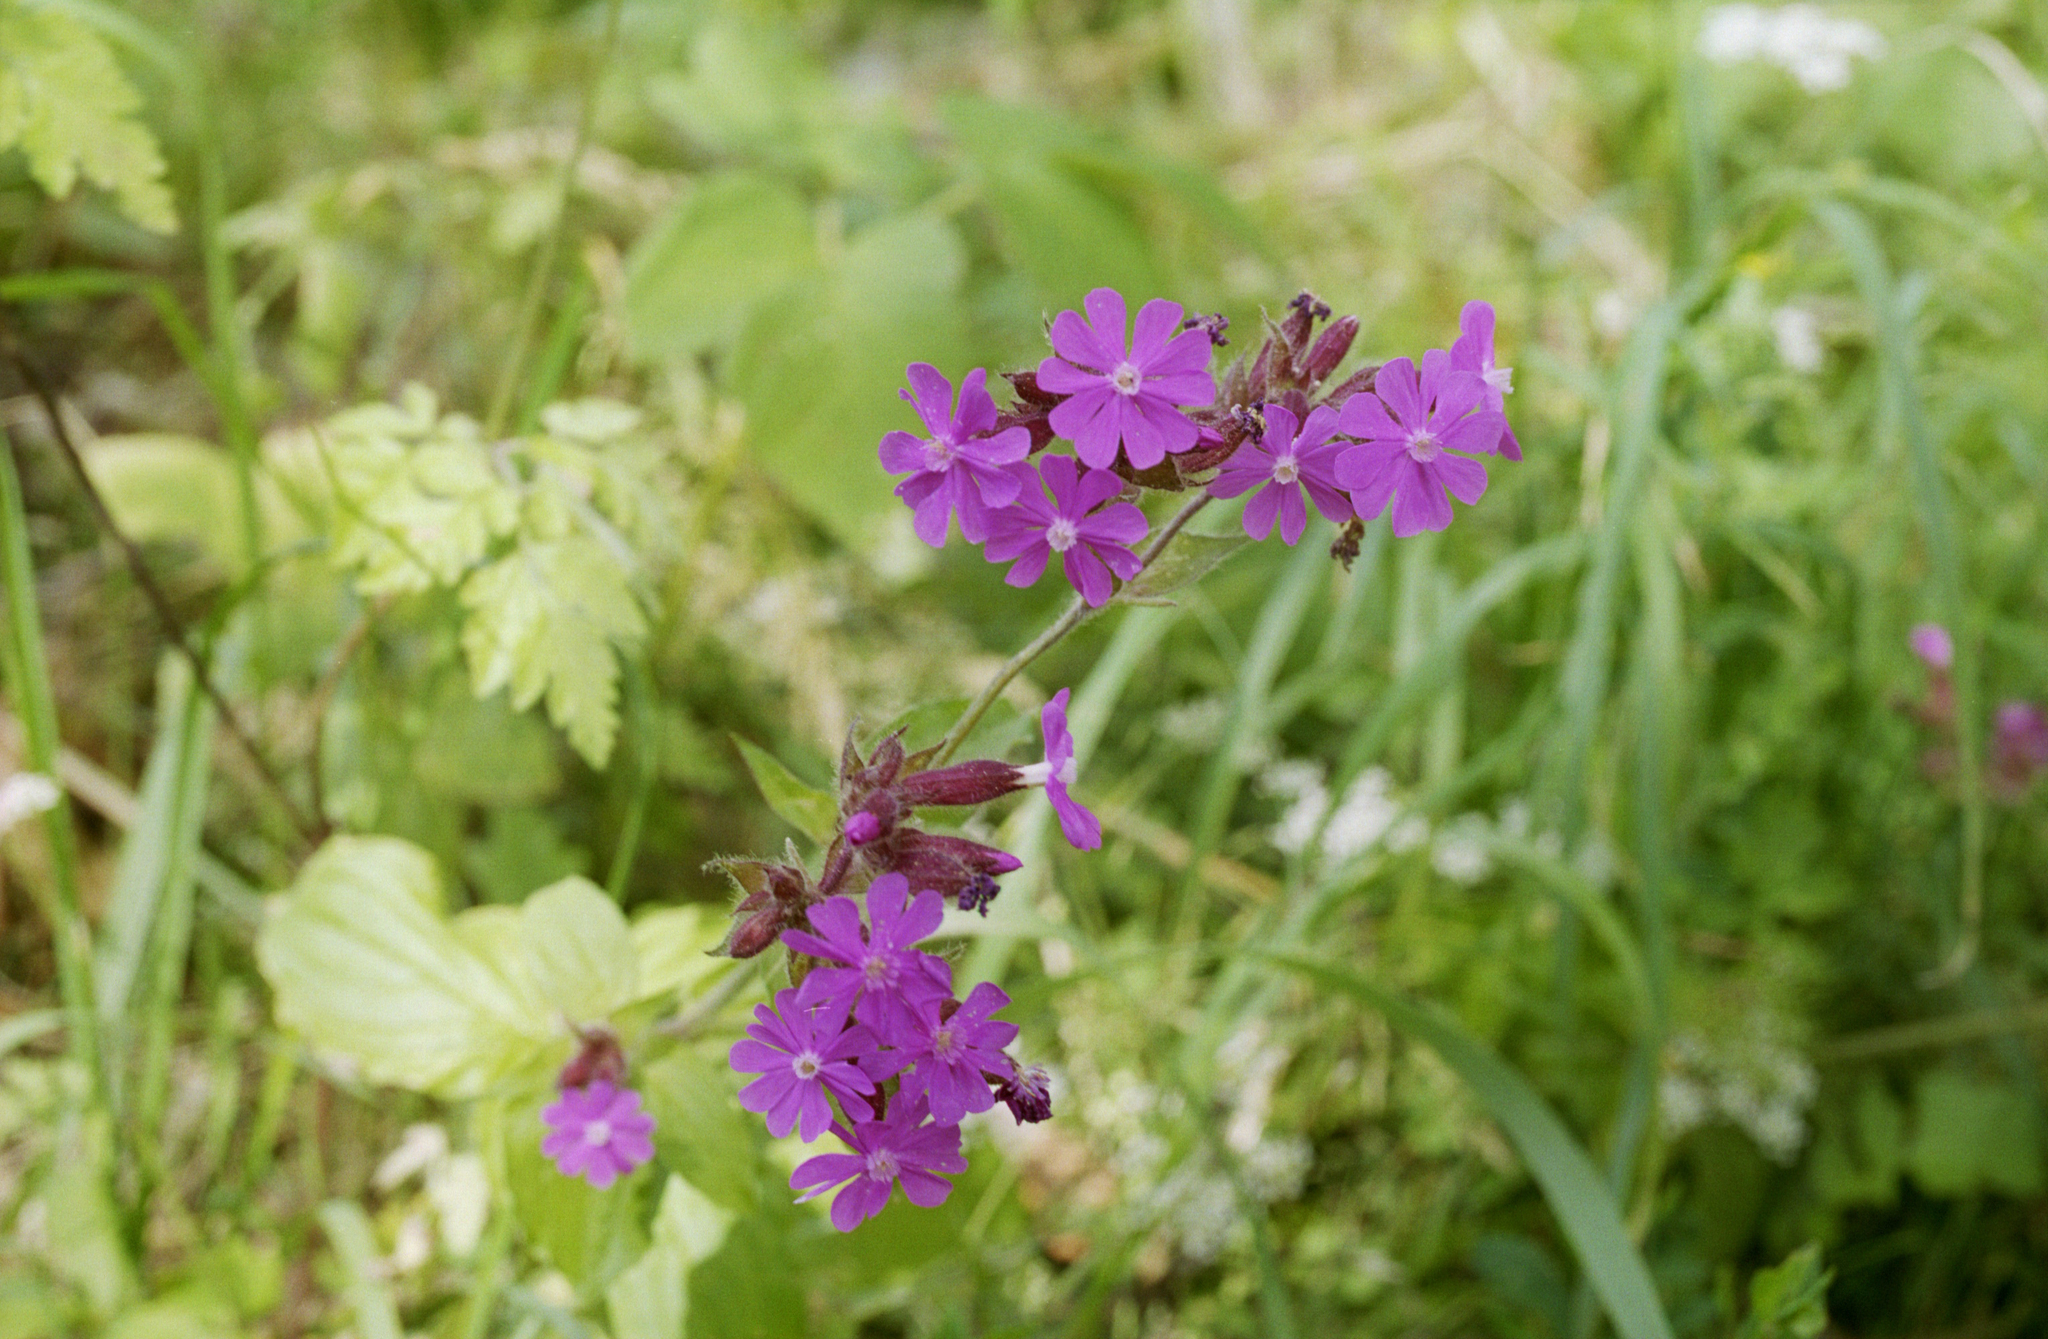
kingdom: Plantae
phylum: Tracheophyta
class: Magnoliopsida
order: Caryophyllales
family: Caryophyllaceae
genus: Silene
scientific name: Silene dioica
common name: Red campion
